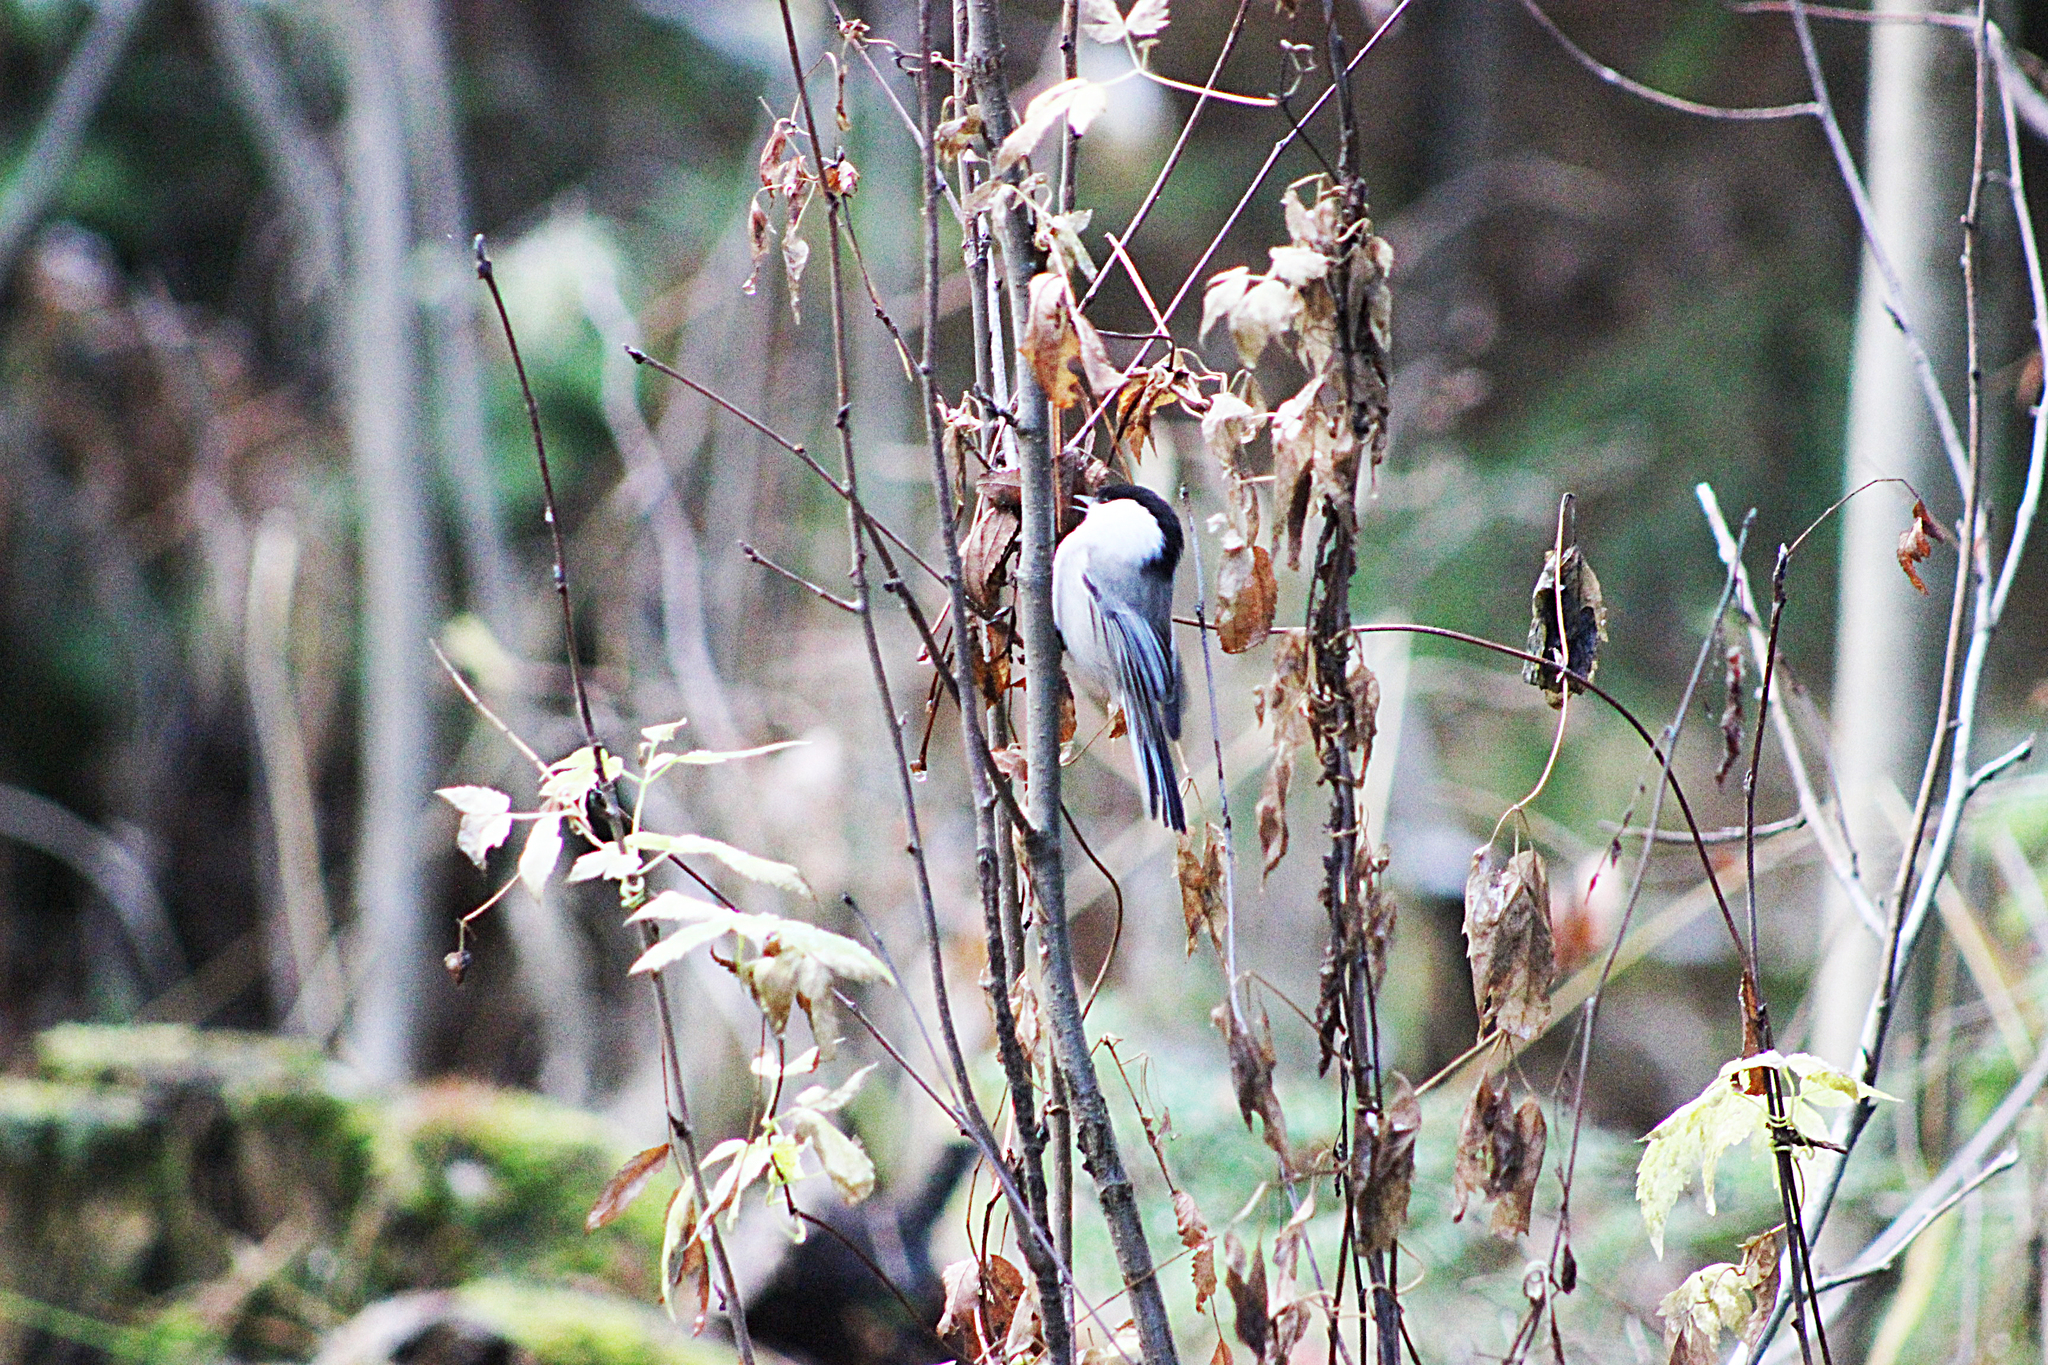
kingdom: Animalia
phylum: Chordata
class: Aves
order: Passeriformes
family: Paridae
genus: Poecile
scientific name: Poecile montanus
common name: Willow tit
